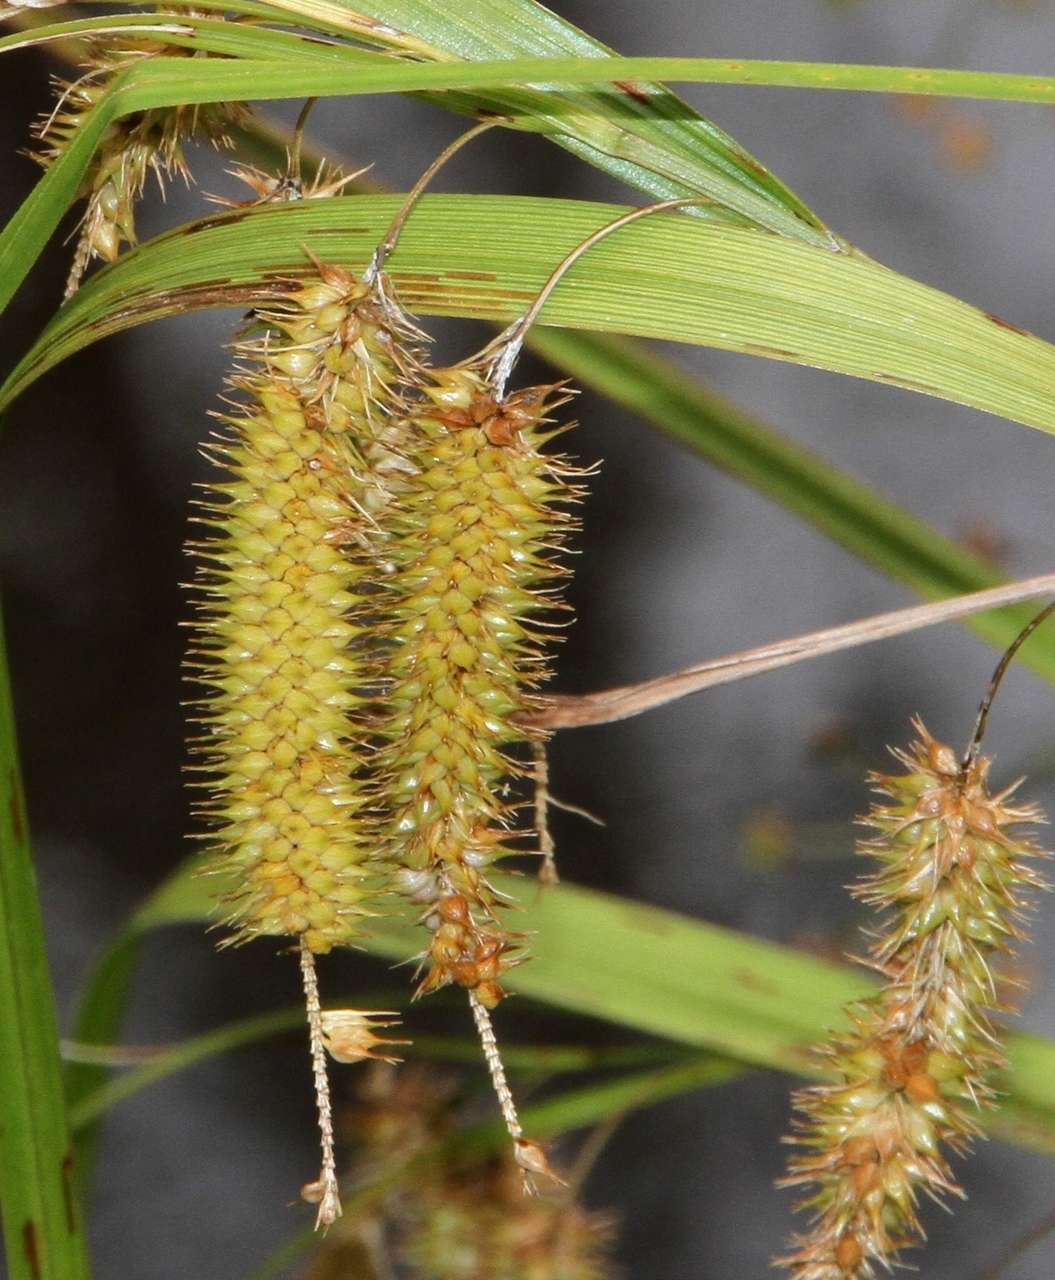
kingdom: Plantae
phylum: Tracheophyta
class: Liliopsida
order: Poales
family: Cyperaceae
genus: Carex
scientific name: Carex fascicularis
